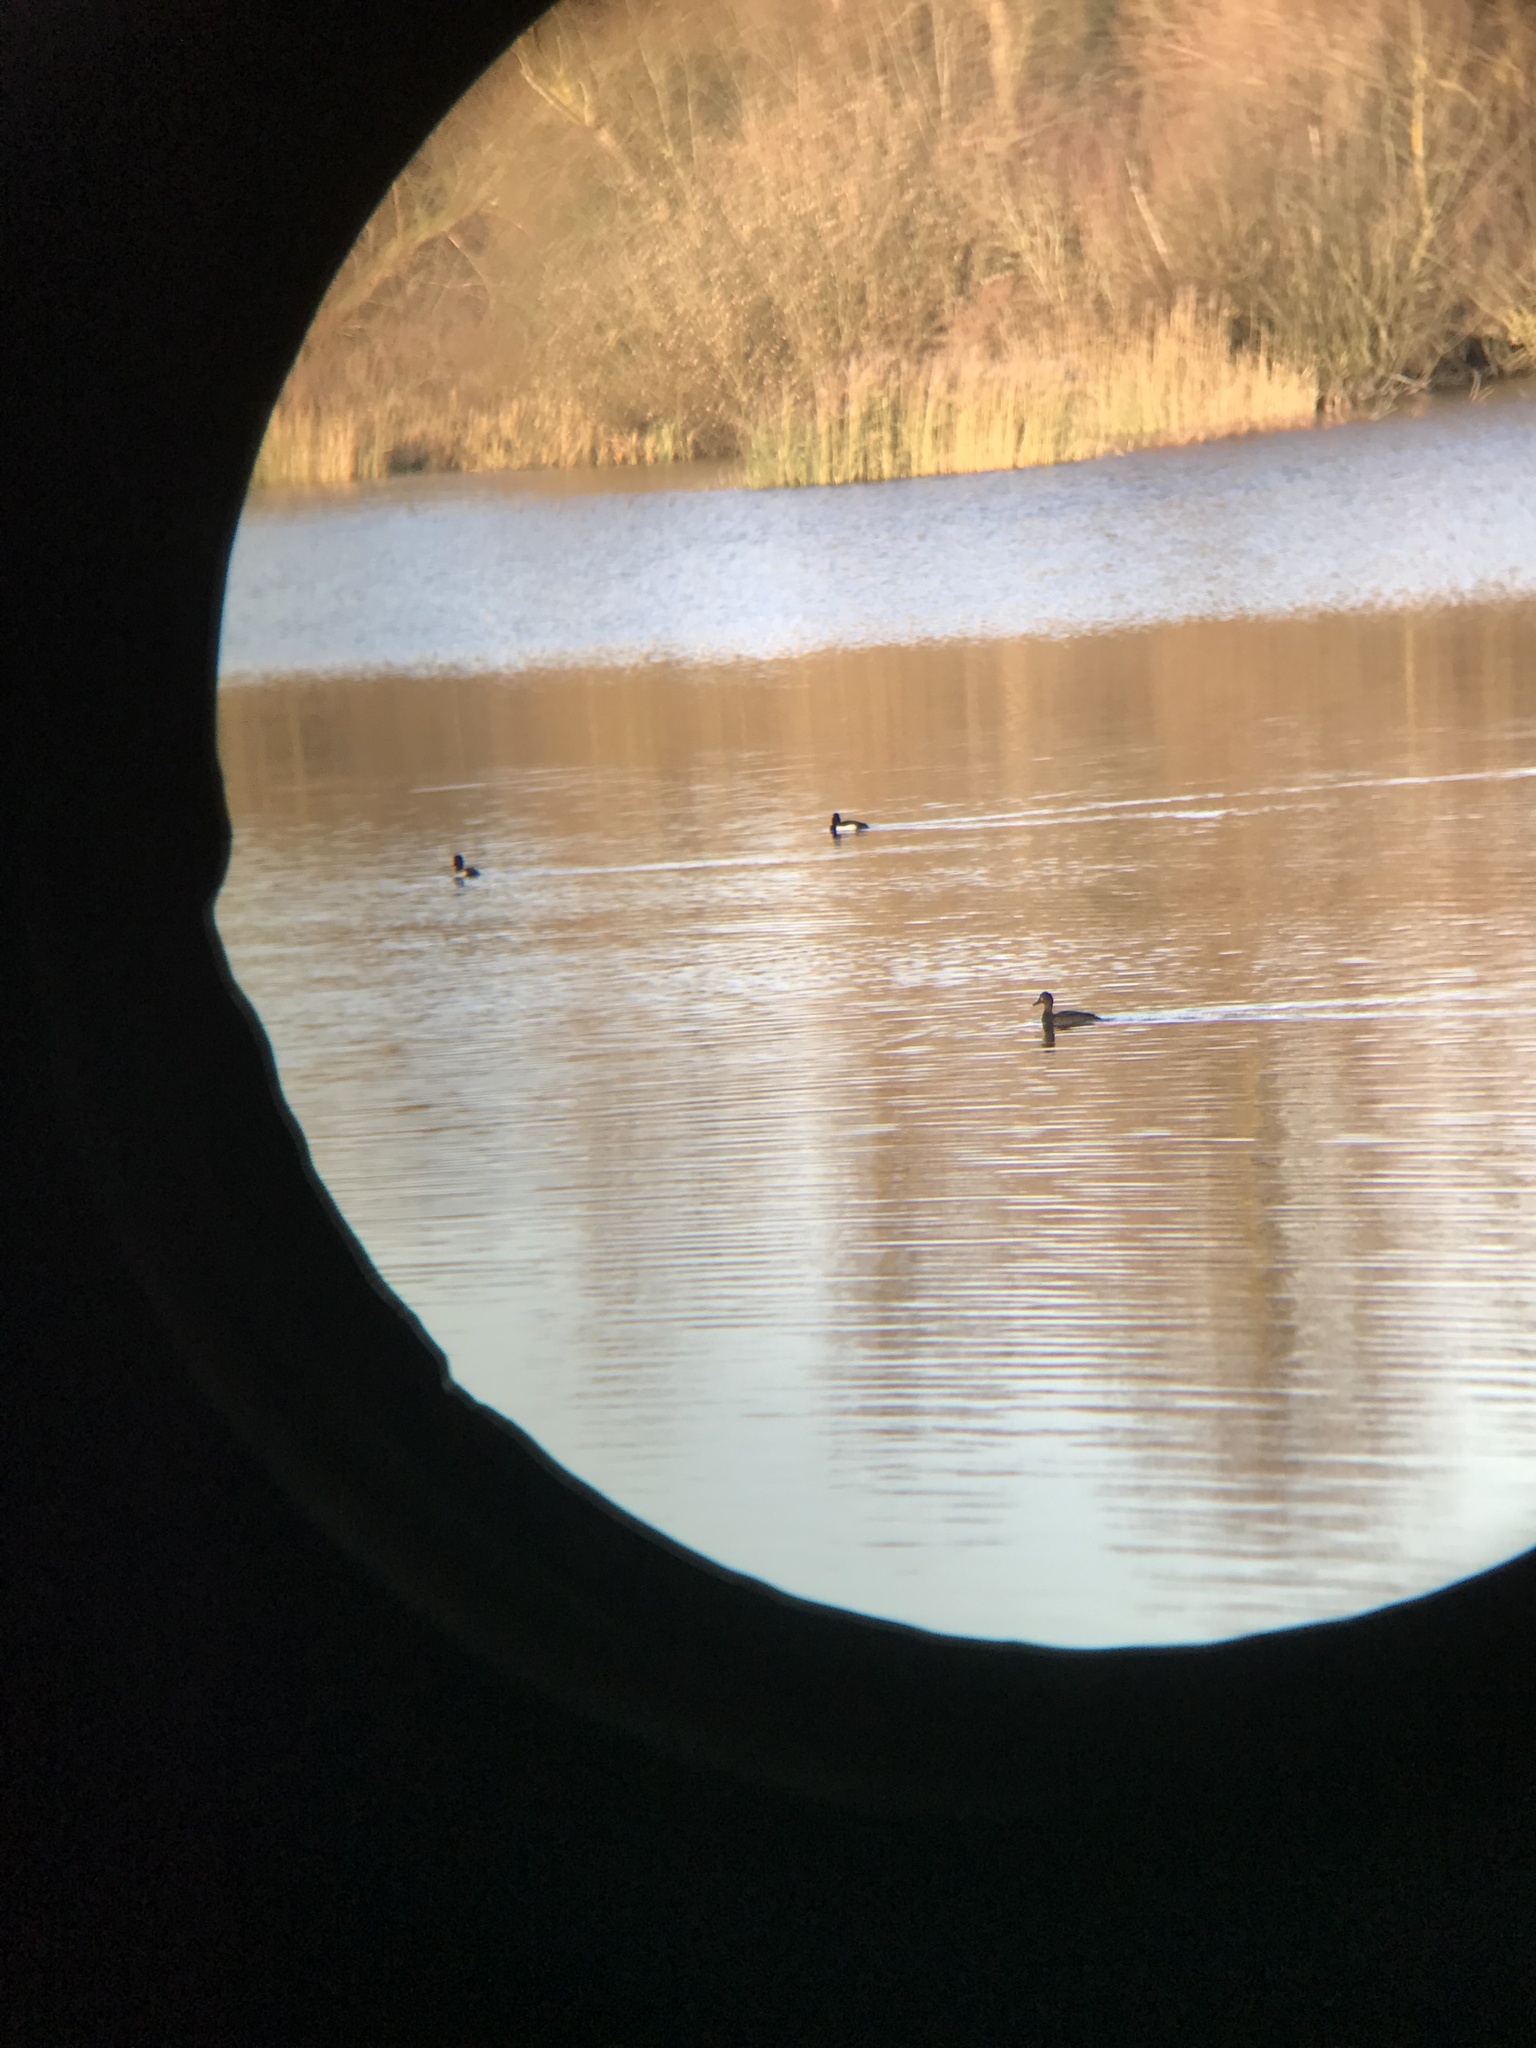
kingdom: Animalia
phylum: Chordata
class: Aves
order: Anseriformes
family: Anatidae
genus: Aythya
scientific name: Aythya fuligula
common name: Tufted duck
